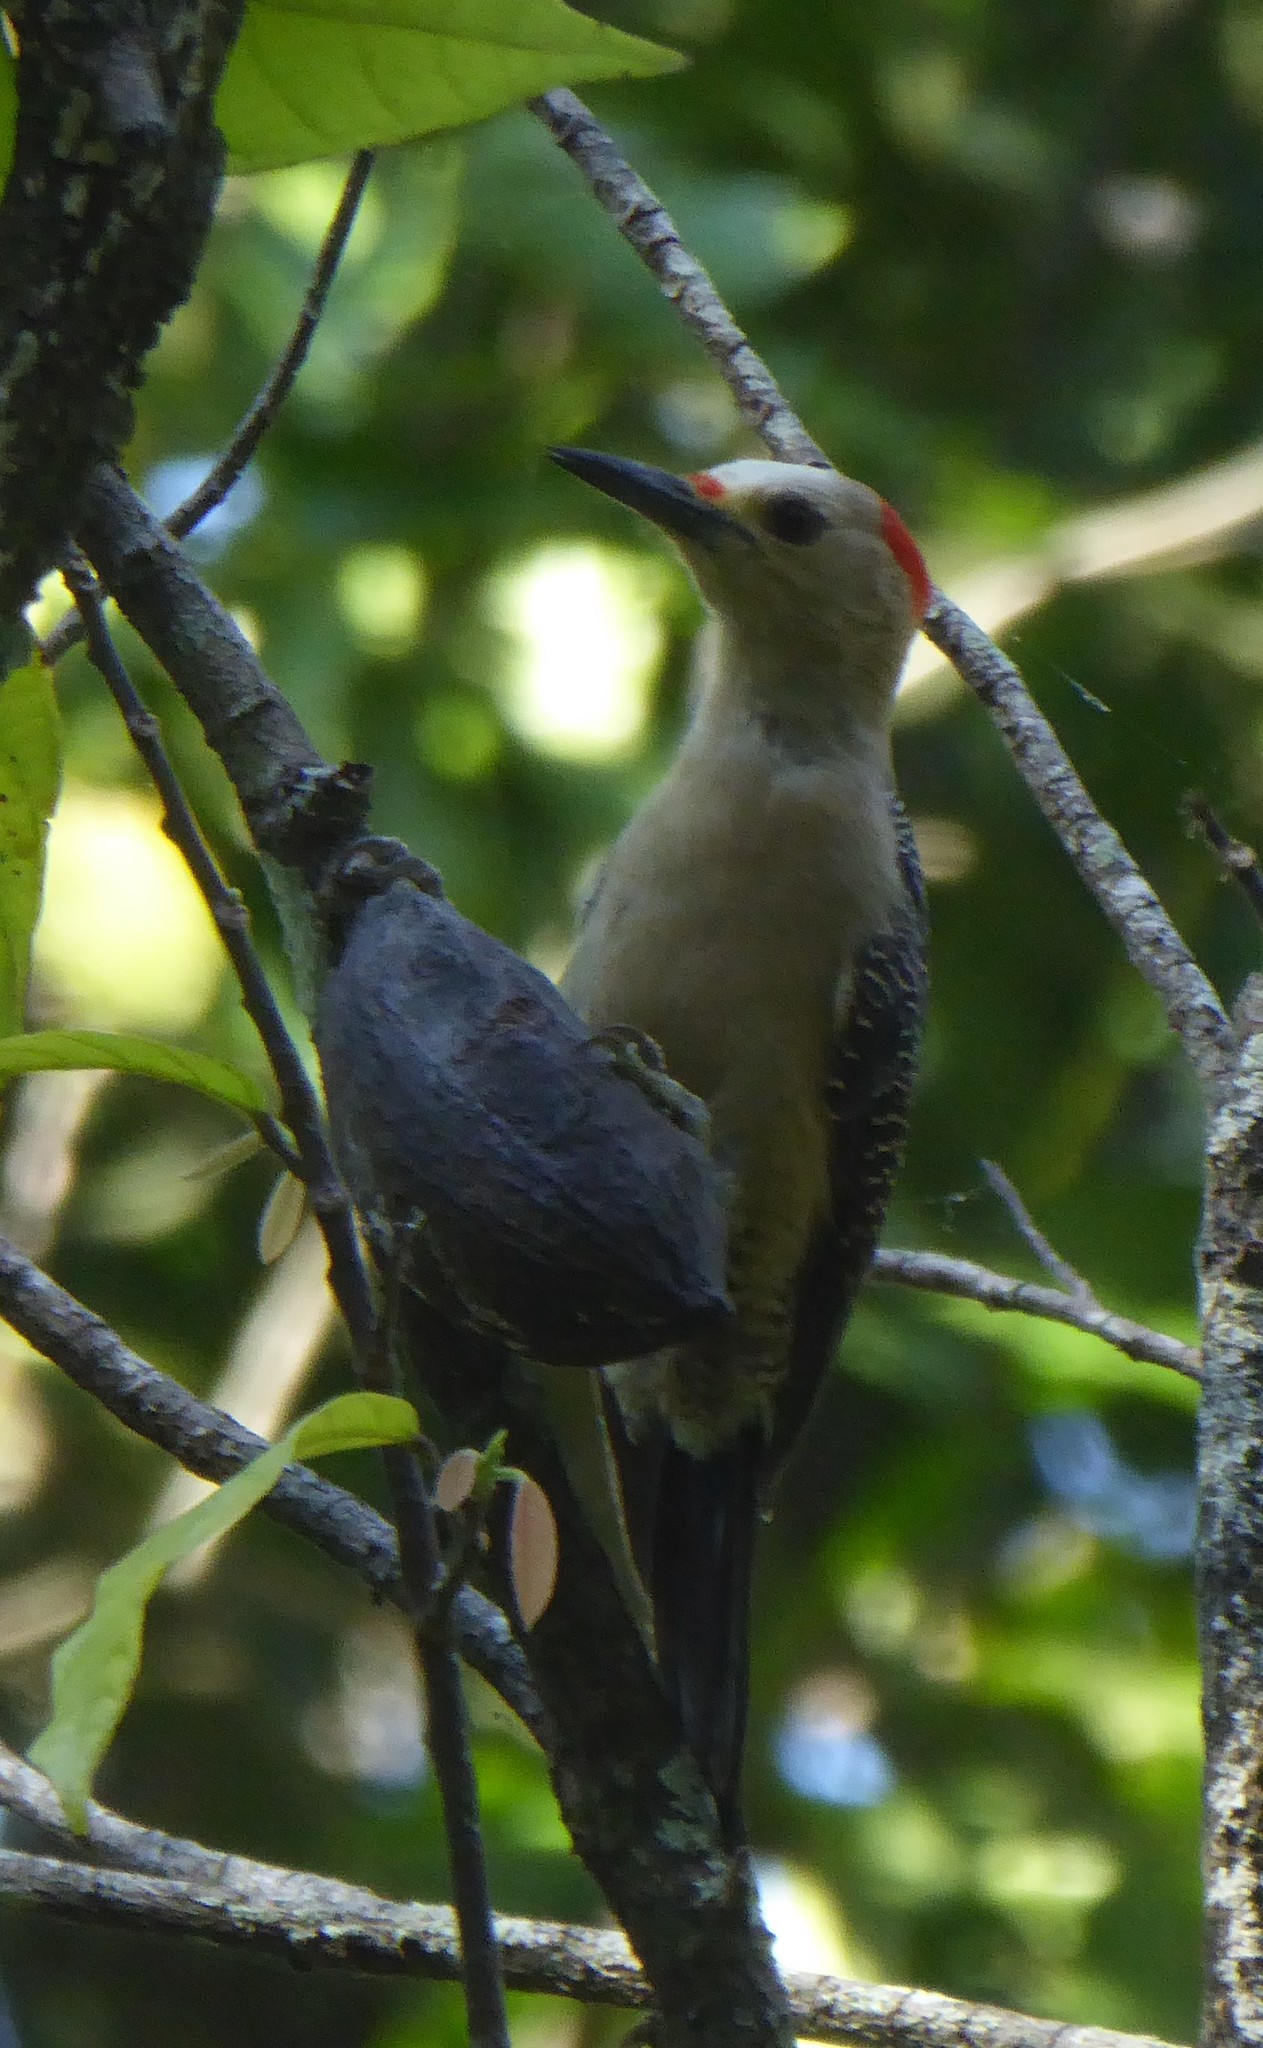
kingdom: Animalia
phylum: Chordata
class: Aves
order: Piciformes
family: Picidae
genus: Melanerpes
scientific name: Melanerpes aurifrons
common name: Golden-fronted woodpecker
